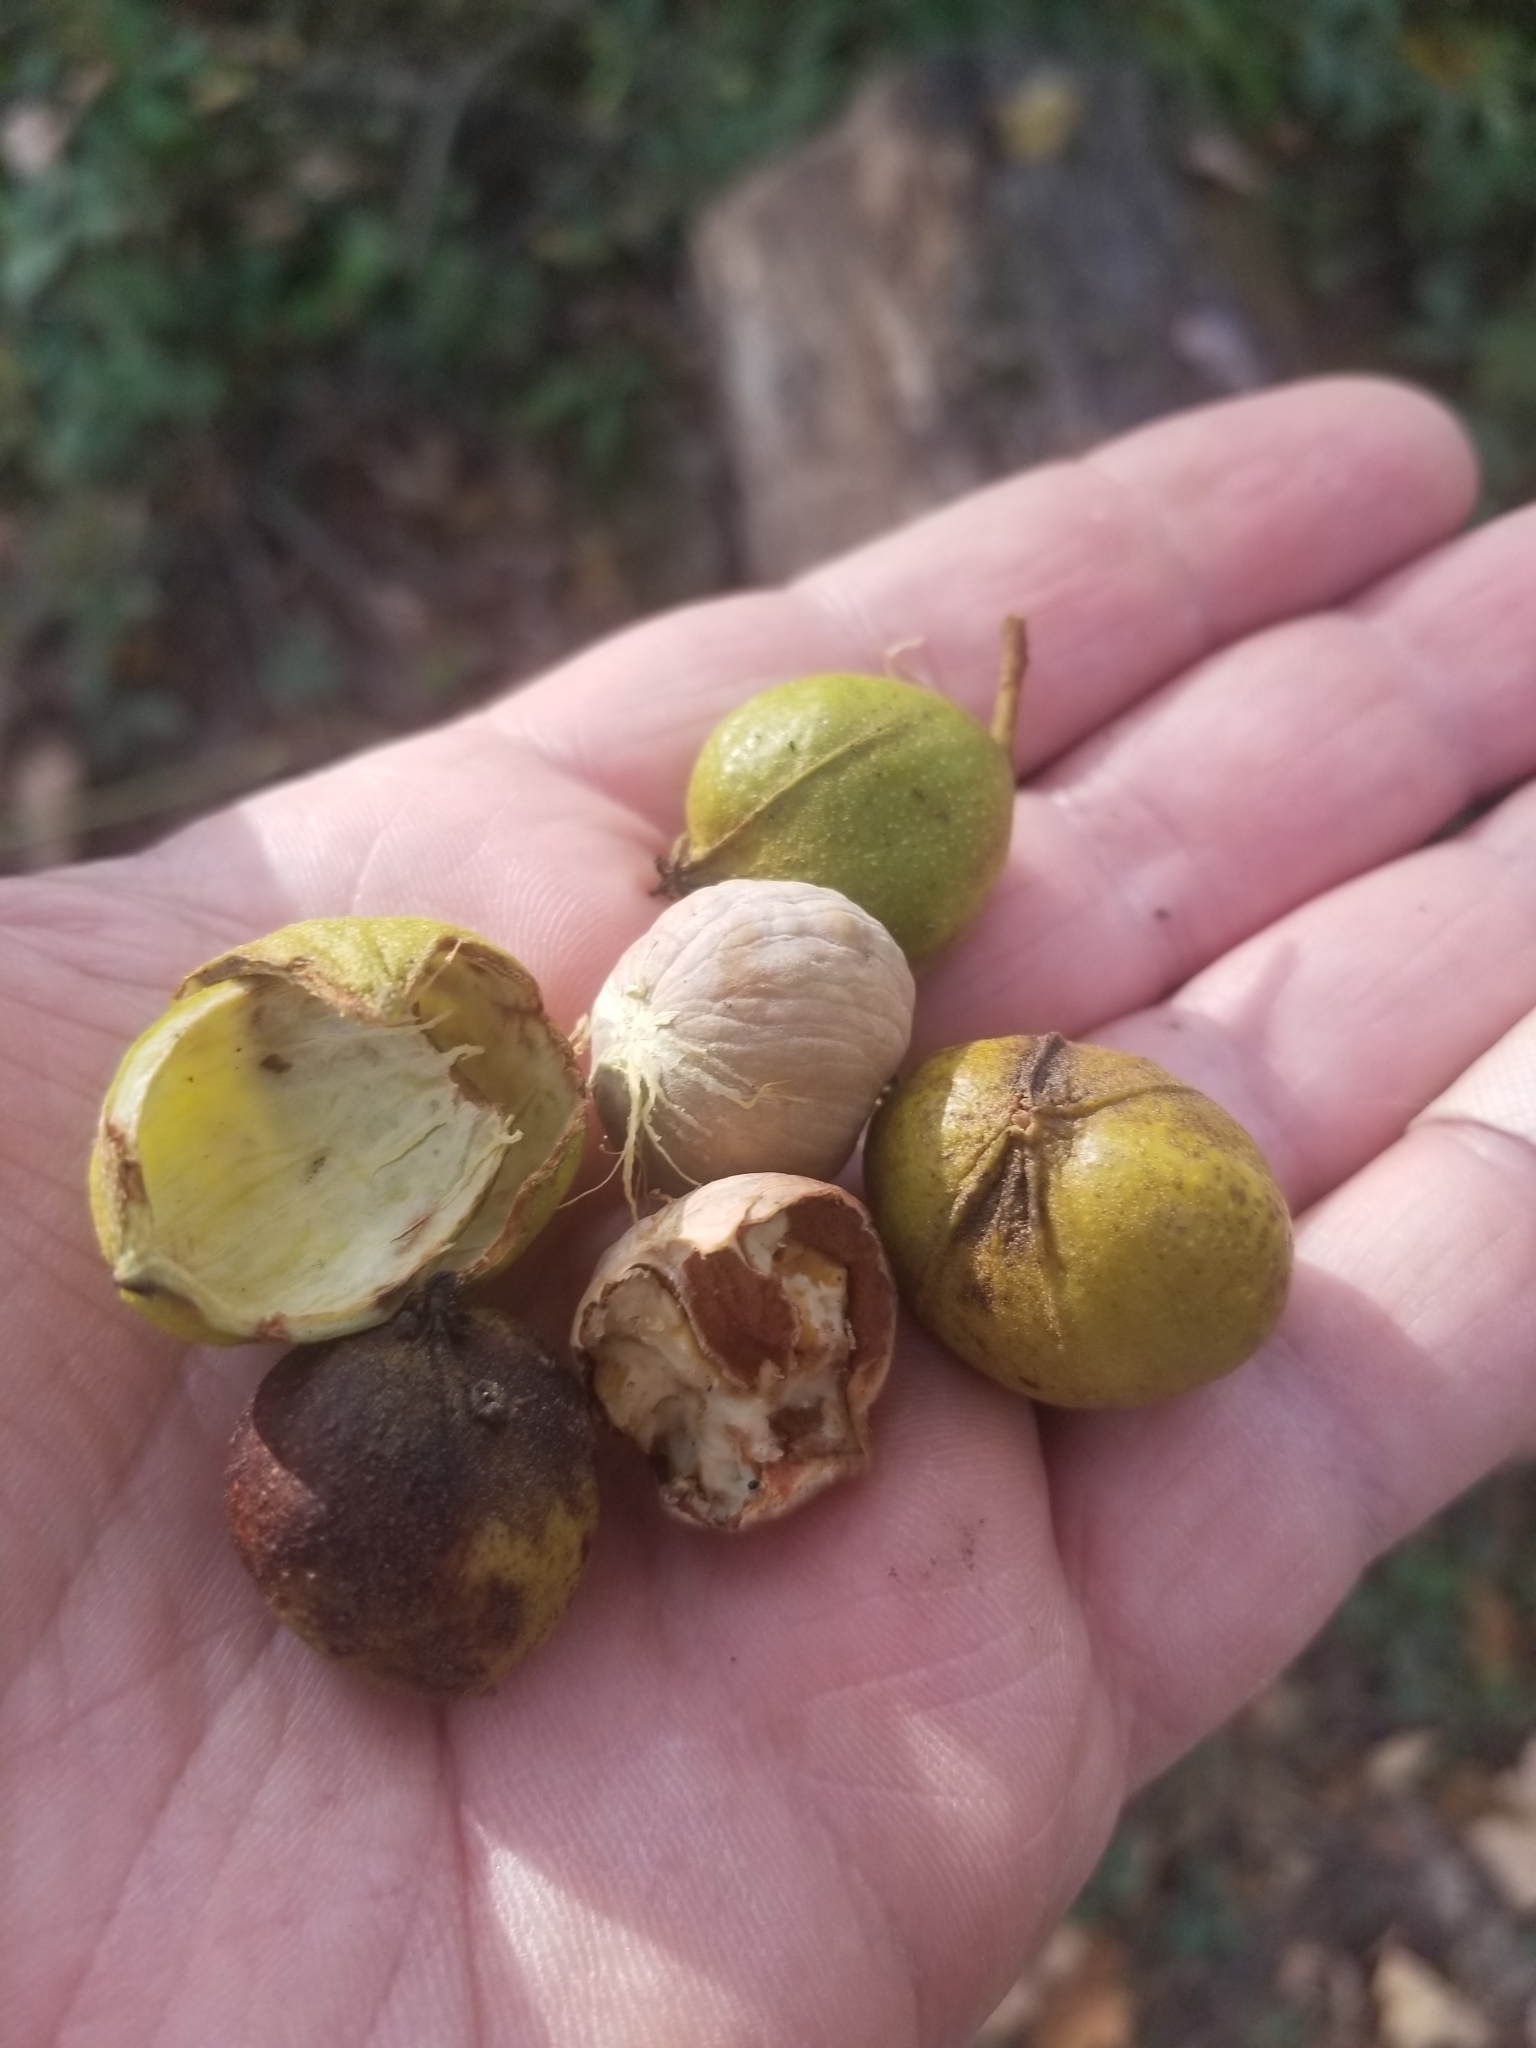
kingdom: Plantae
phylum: Tracheophyta
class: Magnoliopsida
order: Fagales
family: Juglandaceae
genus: Carya
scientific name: Carya cordiformis
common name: Bitternut hickory
